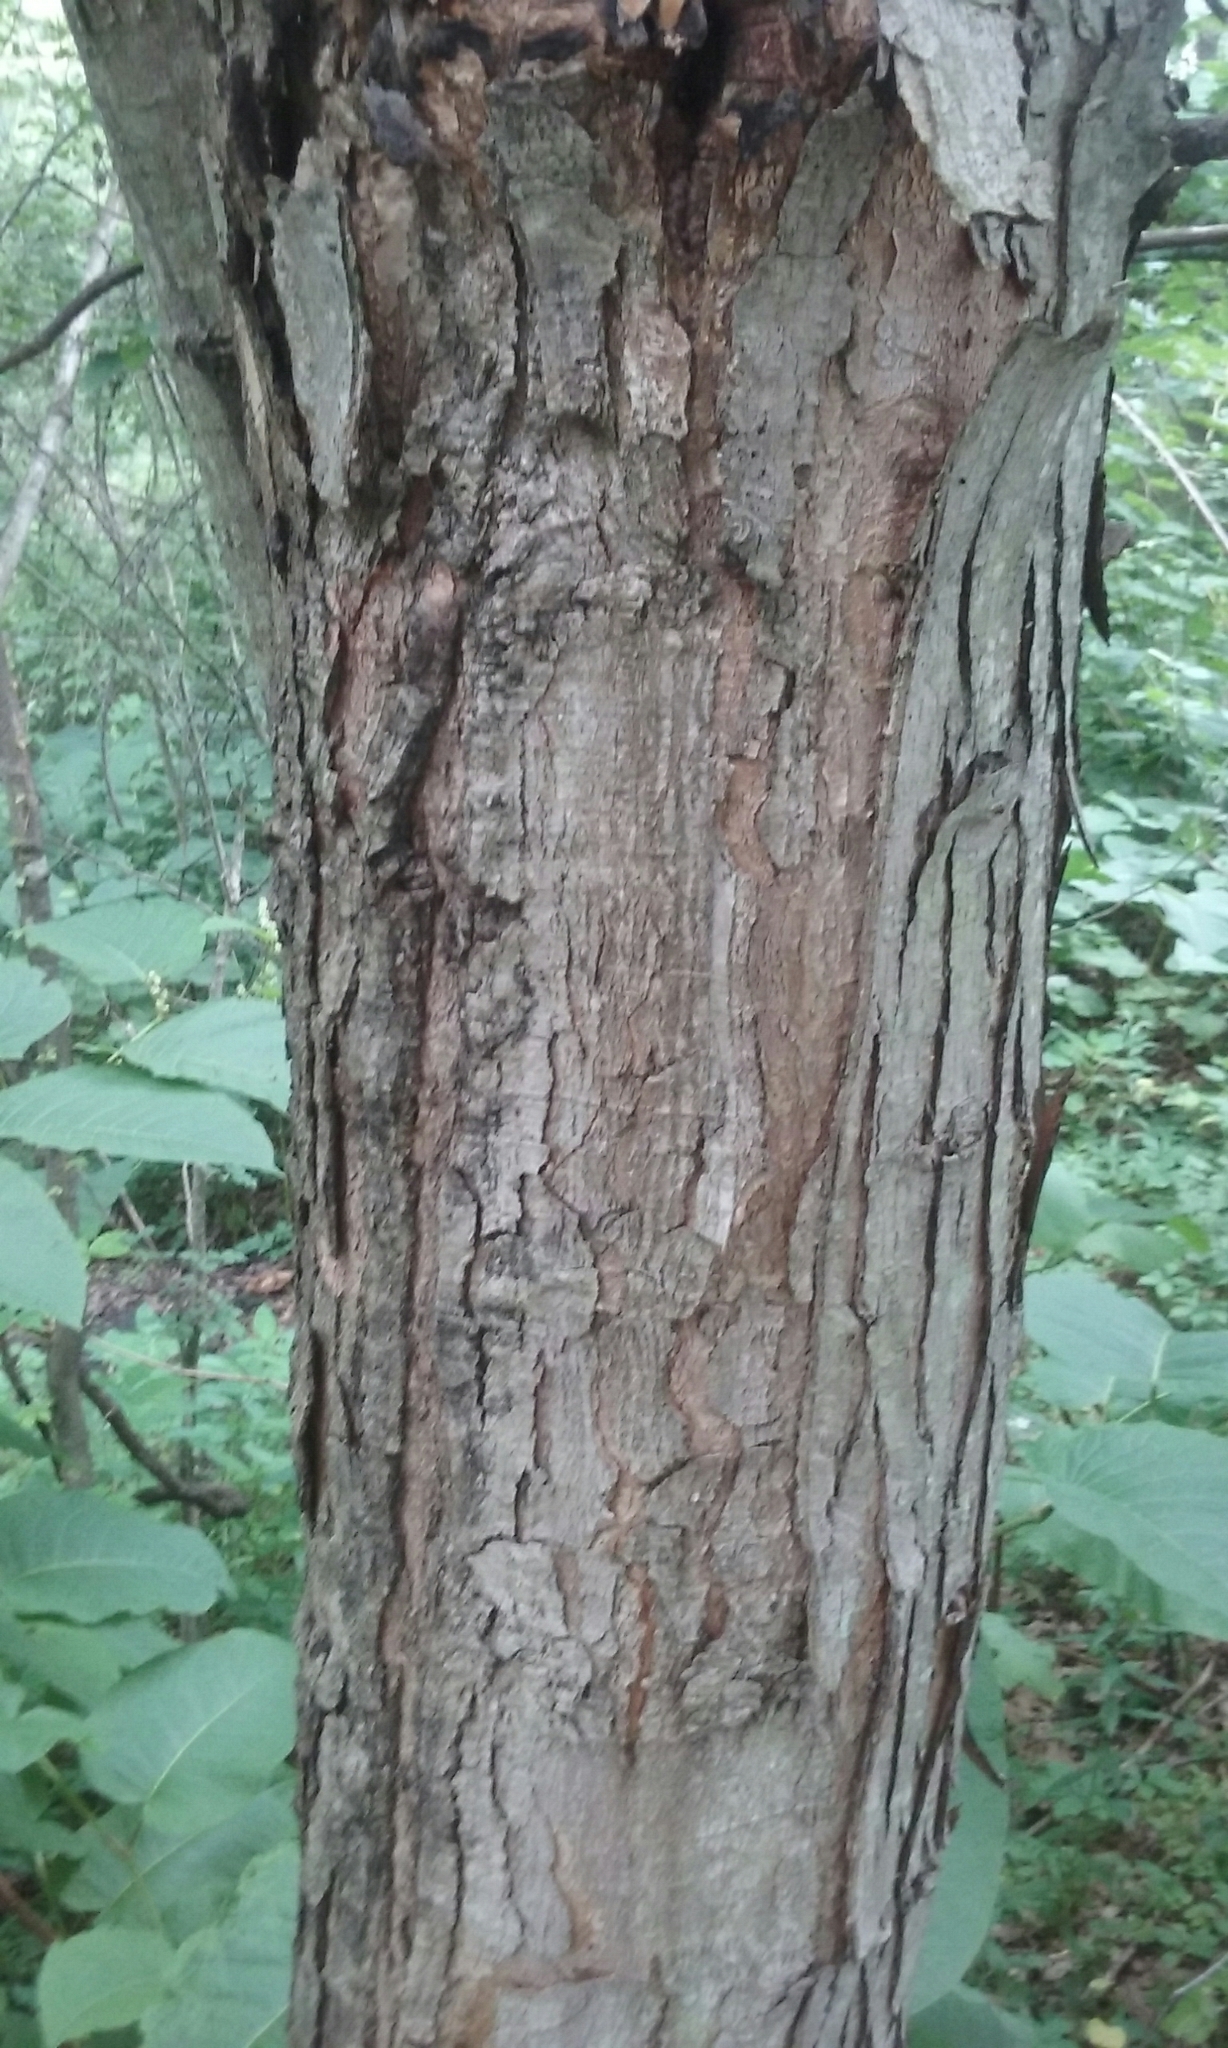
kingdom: Plantae
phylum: Tracheophyta
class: Magnoliopsida
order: Sapindales
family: Sapindaceae
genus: Acer
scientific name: Acer saccharinum
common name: Silver maple
